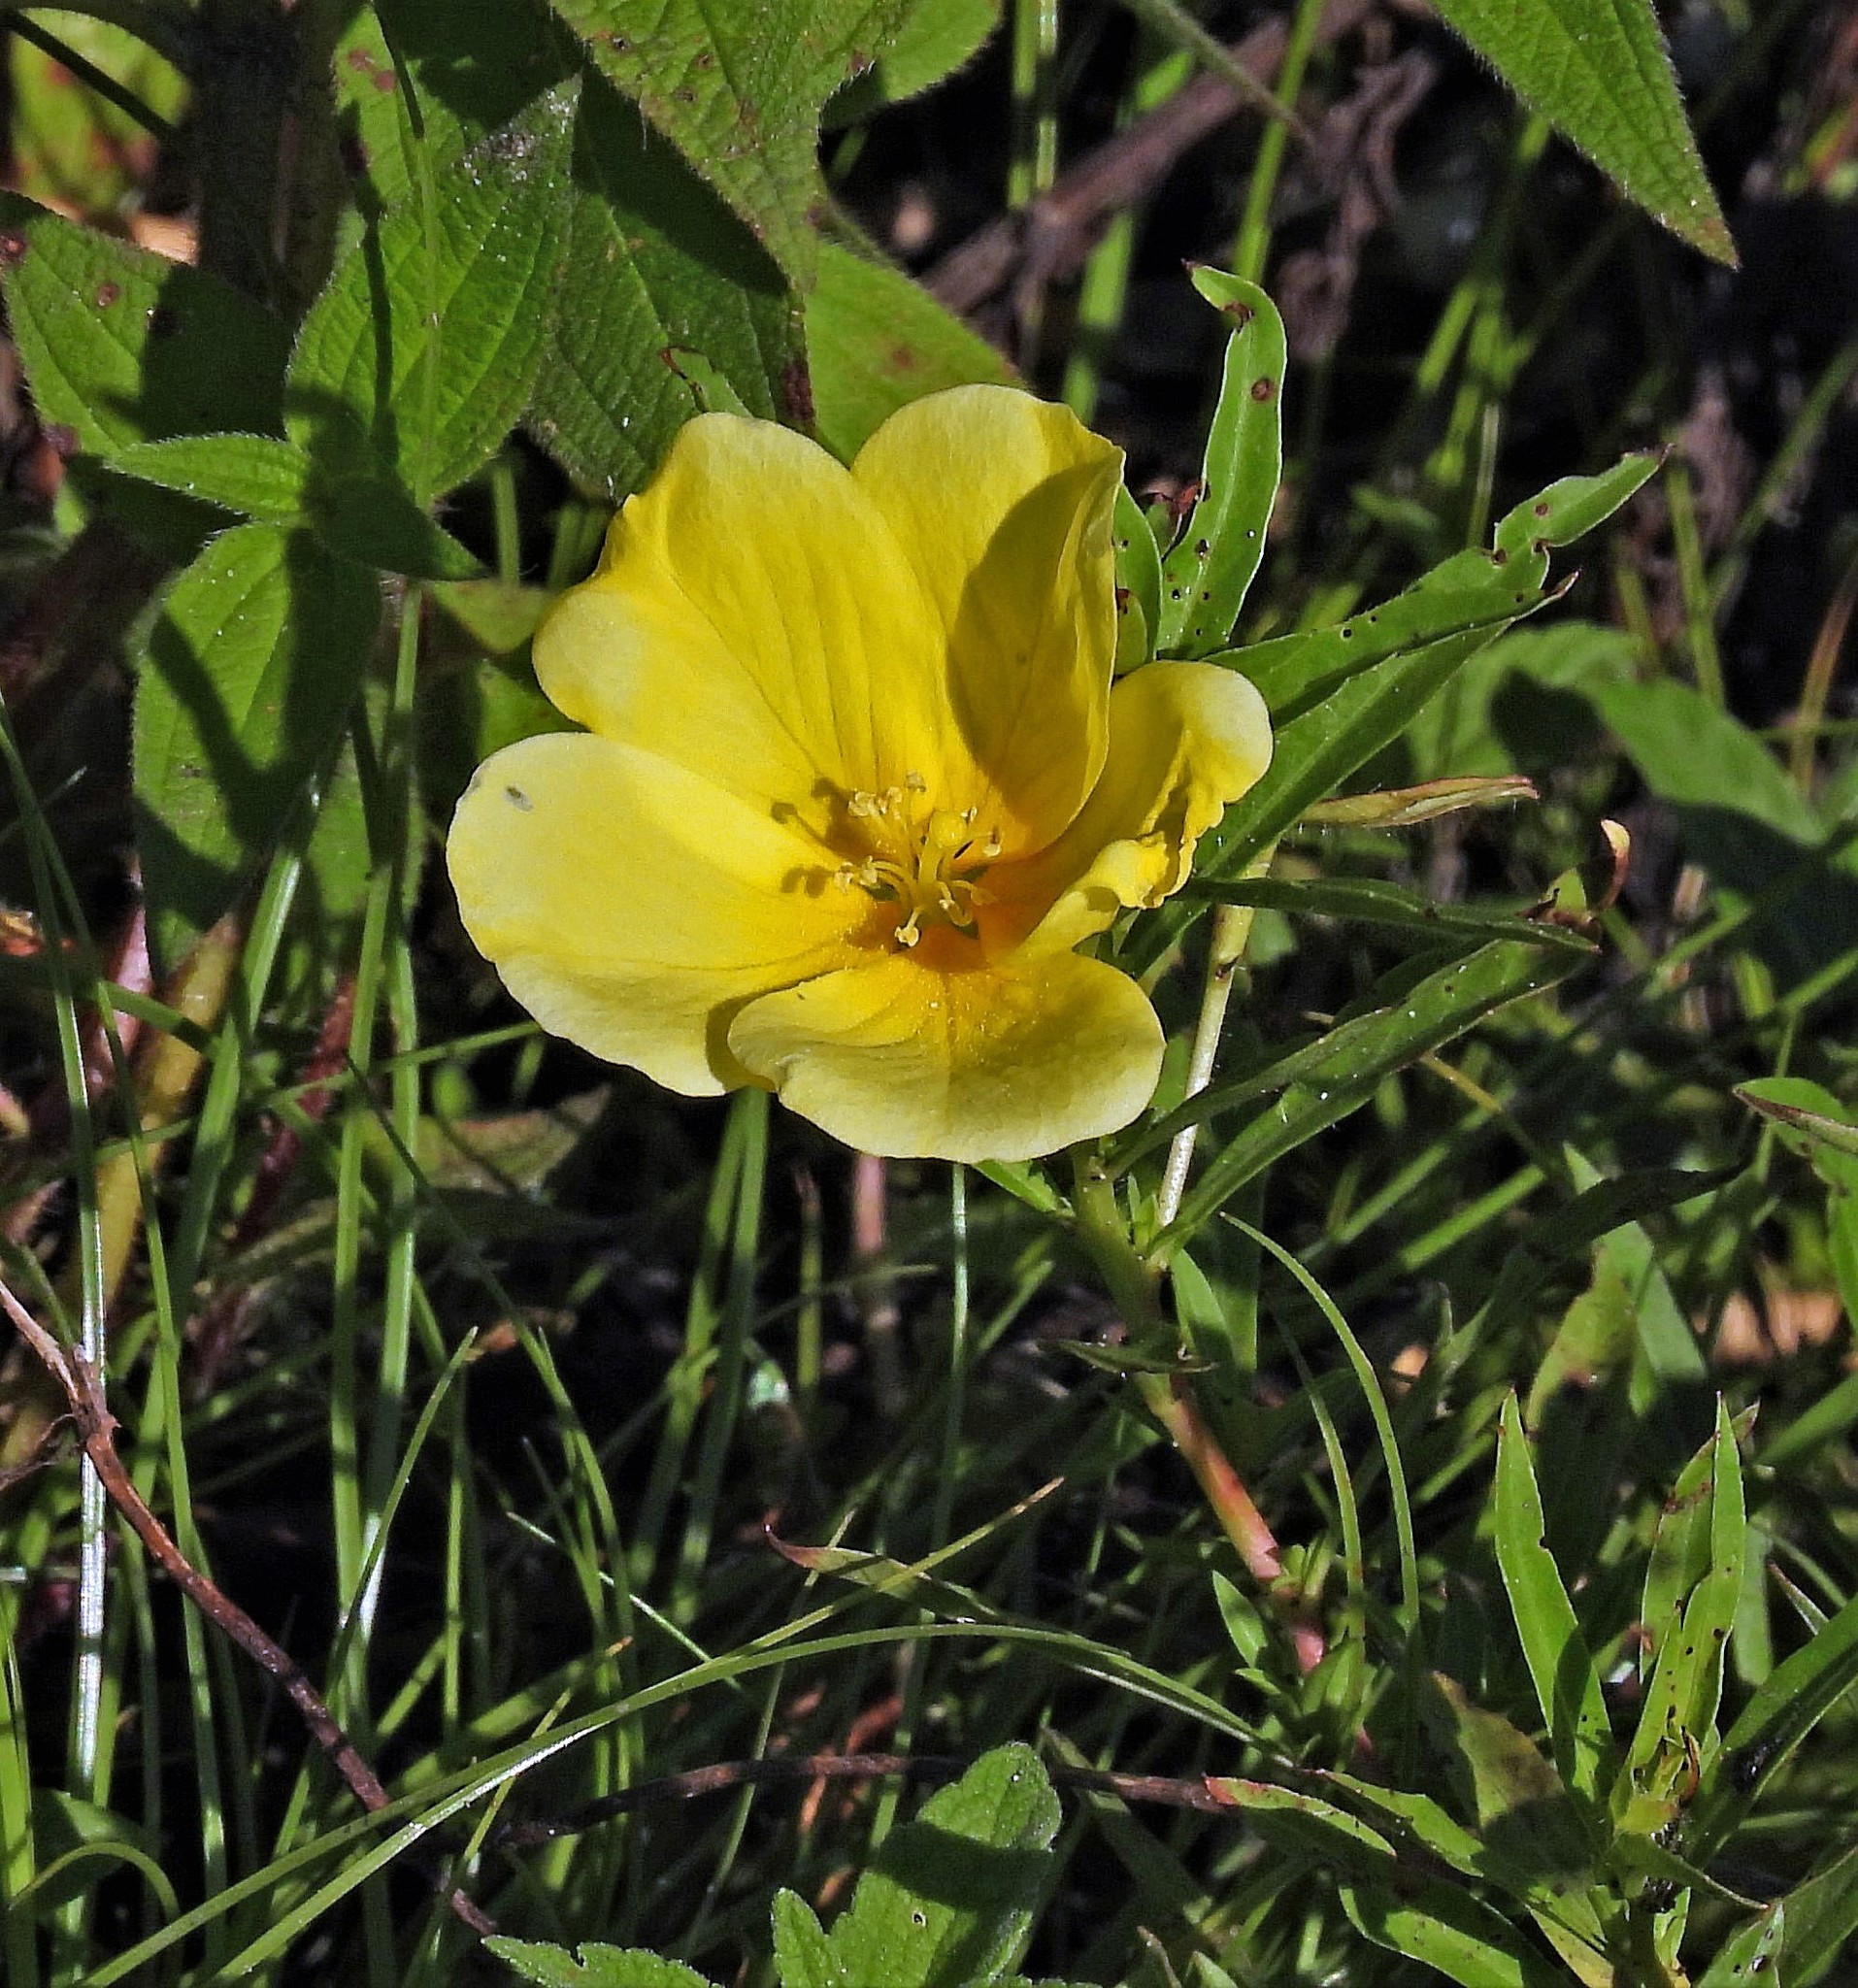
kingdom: Plantae
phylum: Tracheophyta
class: Magnoliopsida
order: Myrtales
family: Onagraceae
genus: Ludwigia
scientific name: Ludwigia peploides
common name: Floating primrose-willow
